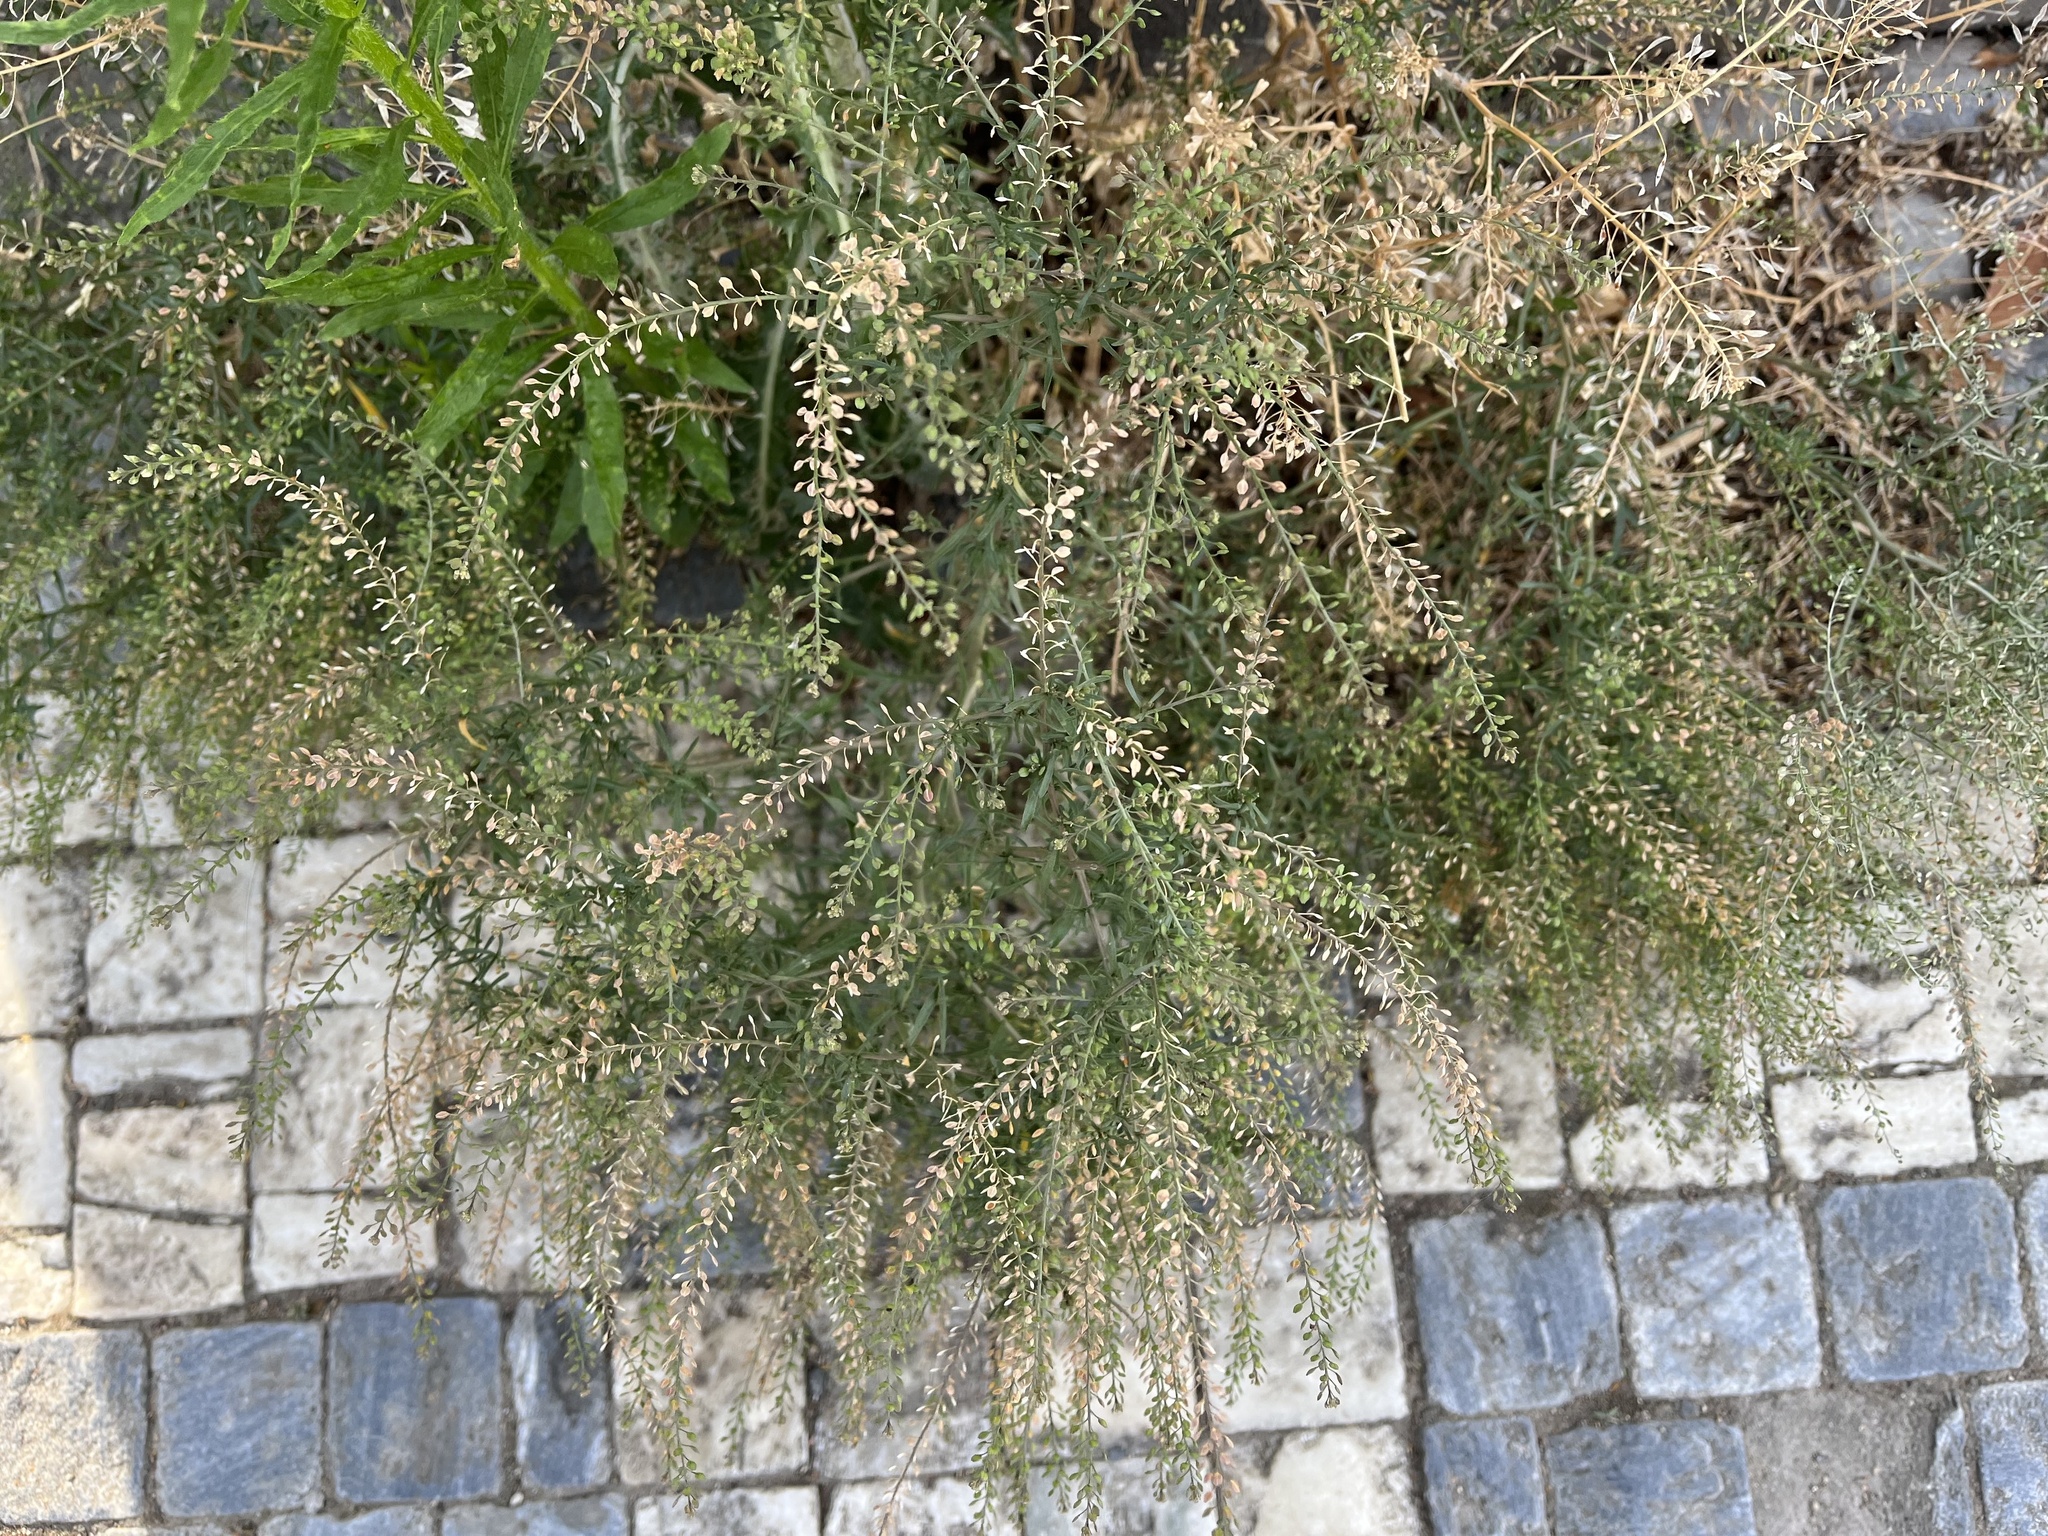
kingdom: Plantae
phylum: Tracheophyta
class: Magnoliopsida
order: Brassicales
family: Brassicaceae
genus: Lepidium
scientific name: Lepidium ruderale
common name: Narrow-leaved pepperwort
